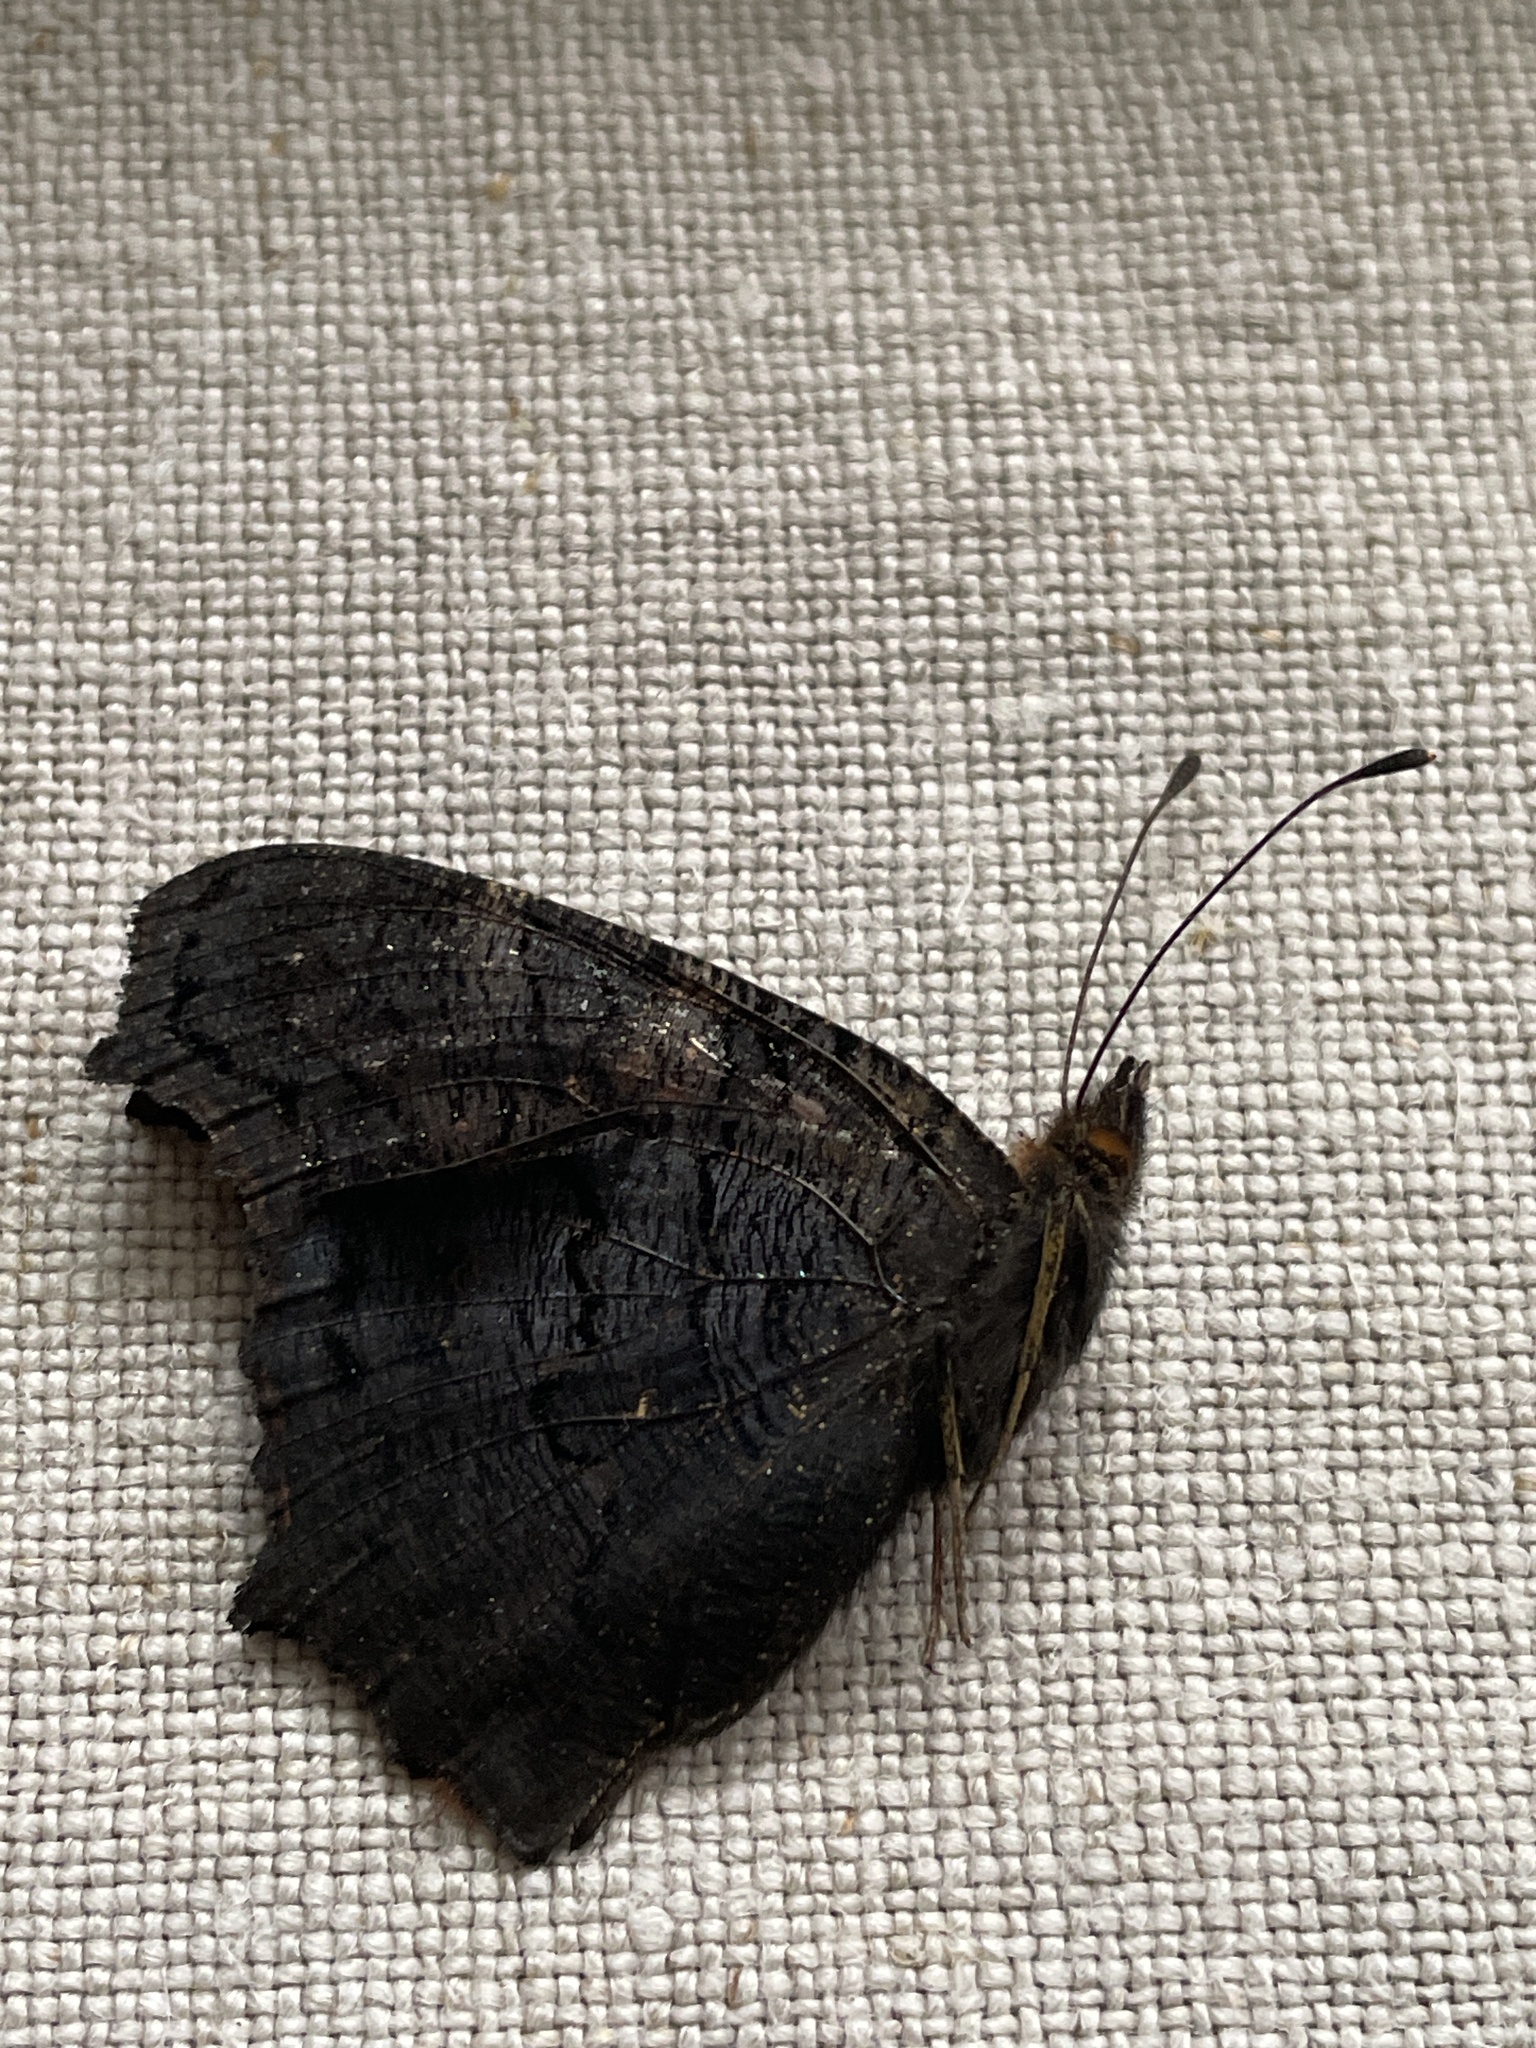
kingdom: Animalia
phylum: Arthropoda
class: Insecta
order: Lepidoptera
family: Nymphalidae
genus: Aglais
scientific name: Aglais io
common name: Peacock
